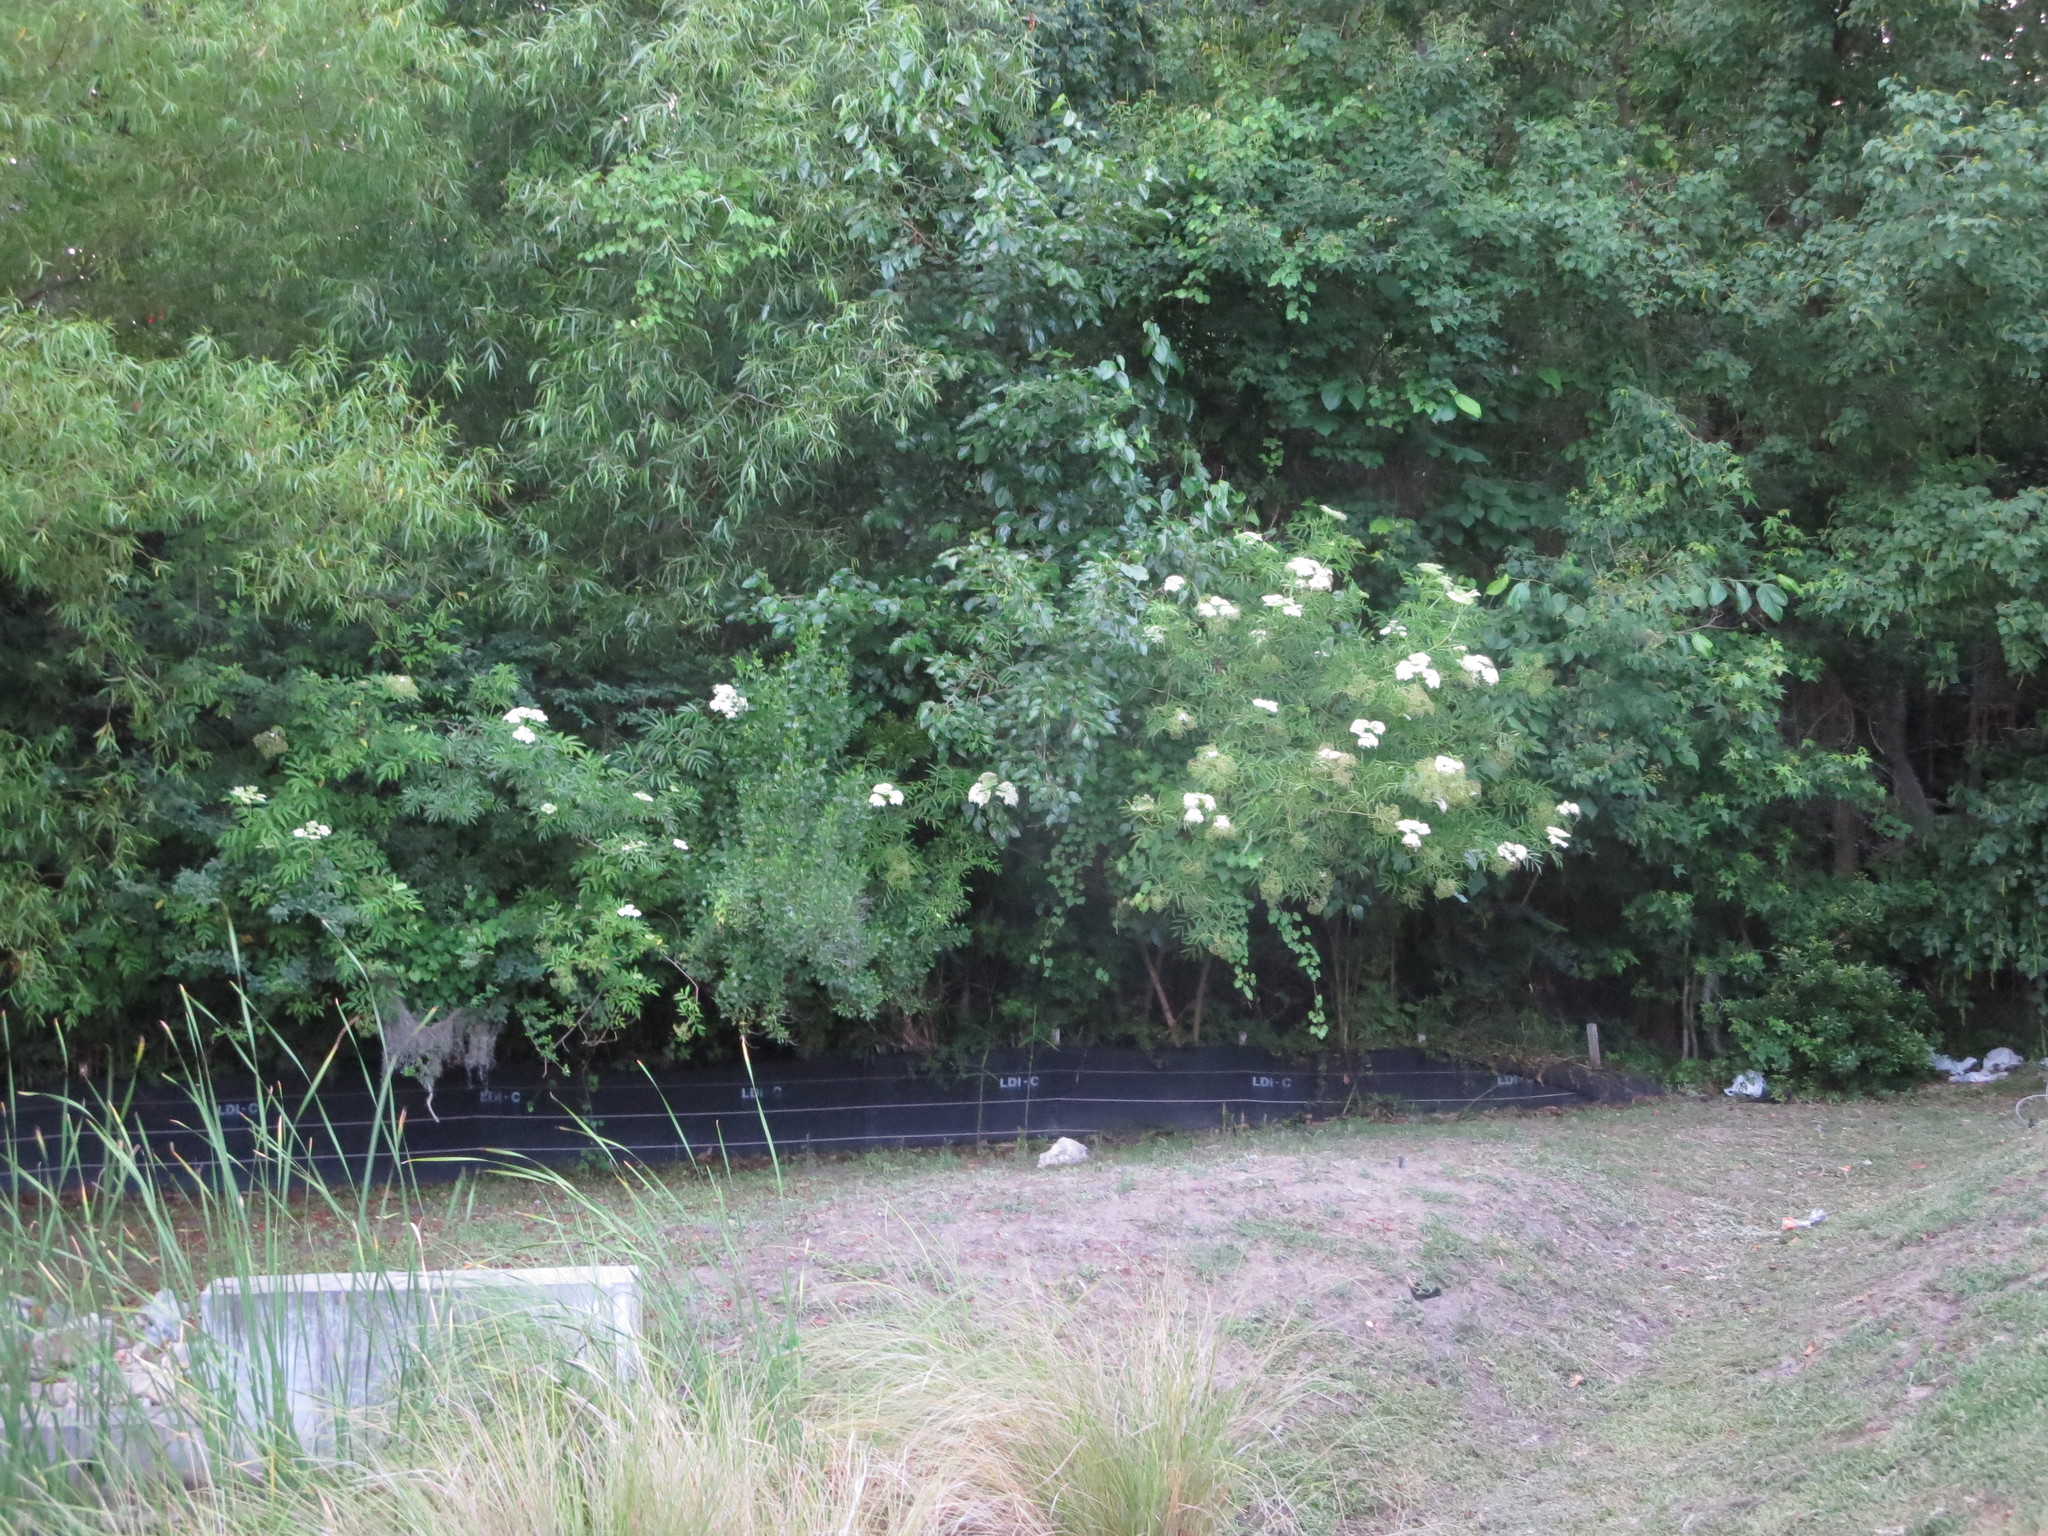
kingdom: Plantae
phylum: Tracheophyta
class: Magnoliopsida
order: Dipsacales
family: Viburnaceae
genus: Sambucus
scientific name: Sambucus canadensis
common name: American elder
